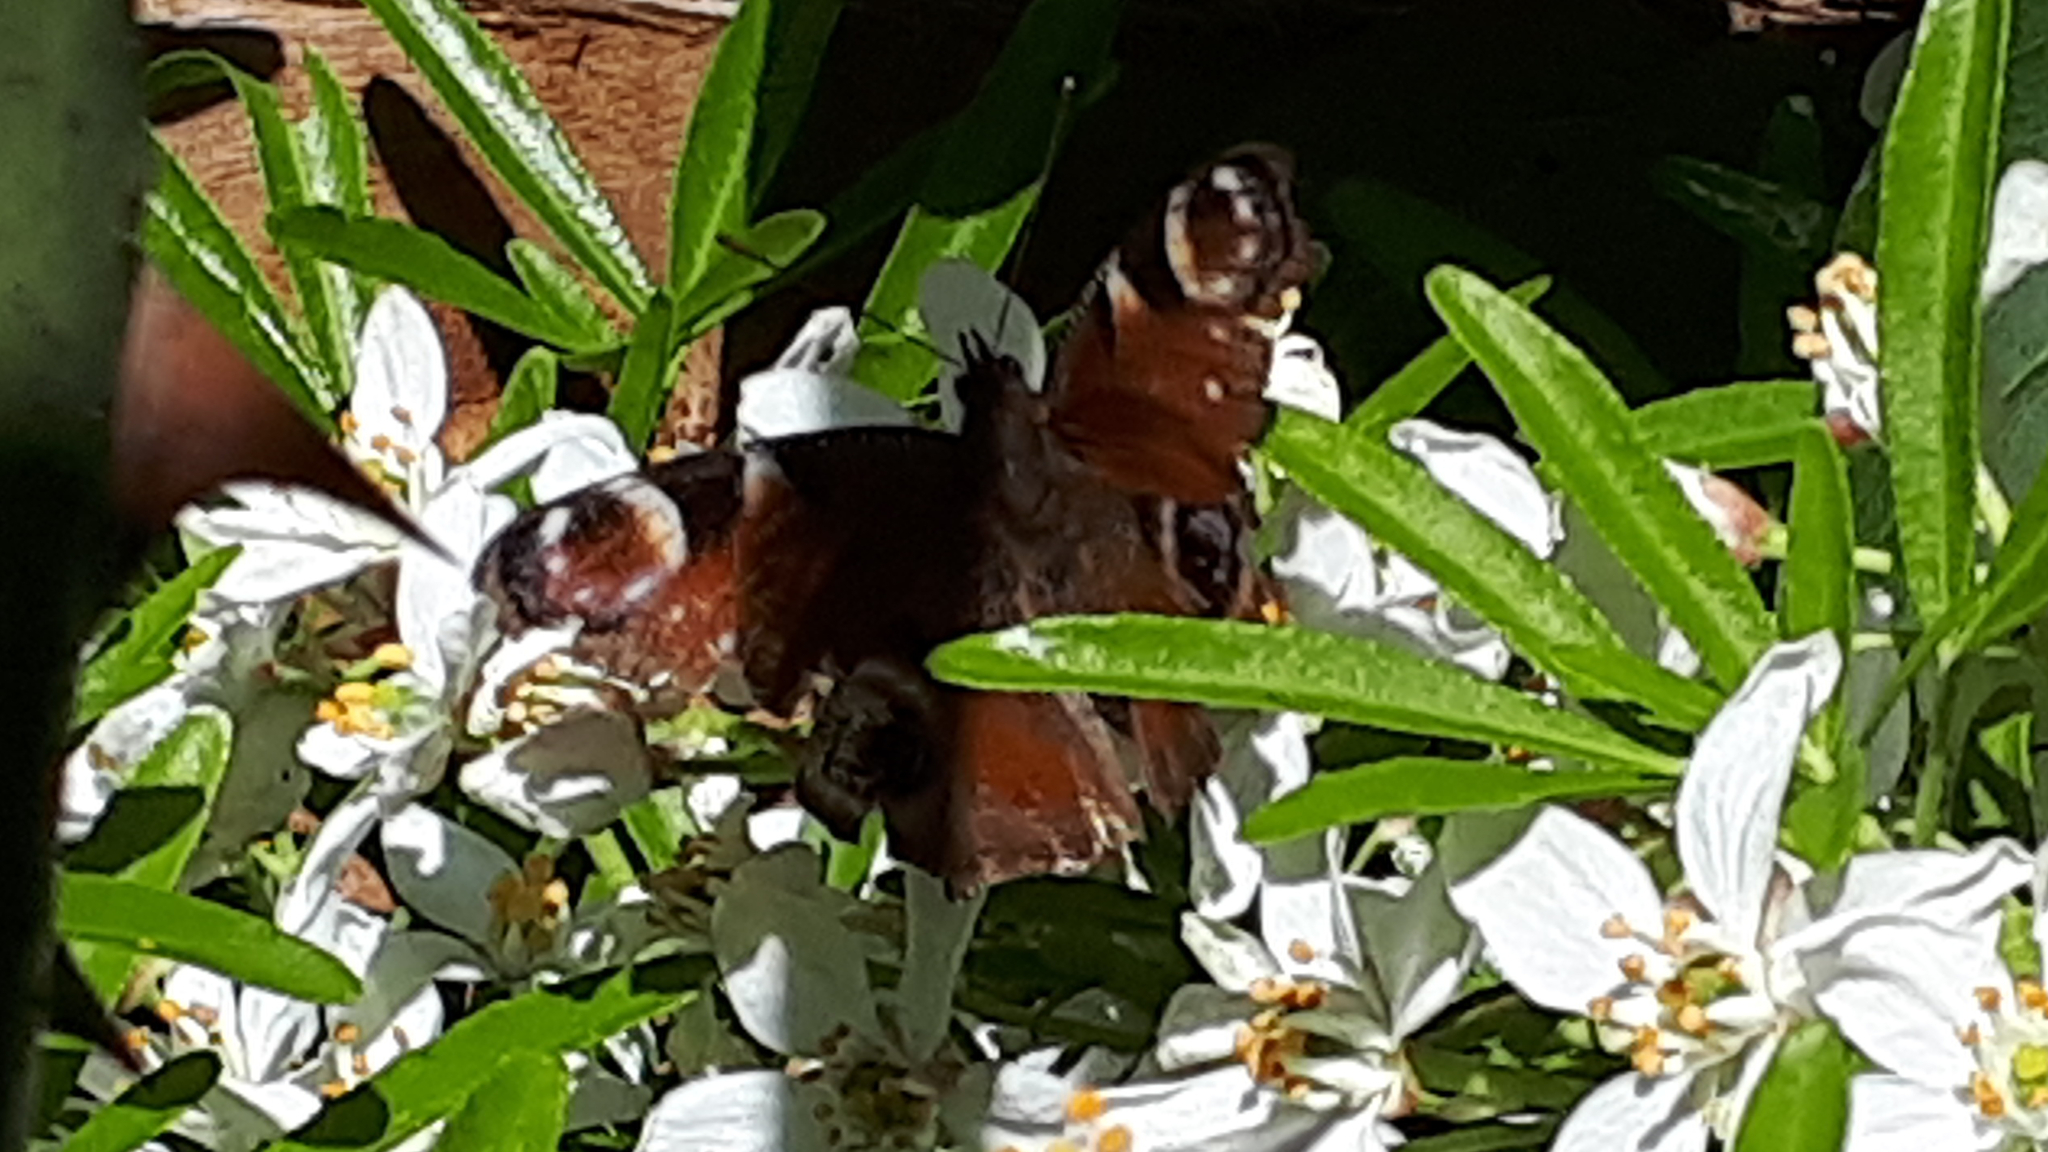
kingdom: Animalia
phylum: Arthropoda
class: Insecta
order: Lepidoptera
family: Nymphalidae
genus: Aglais
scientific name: Aglais io
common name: Peacock
